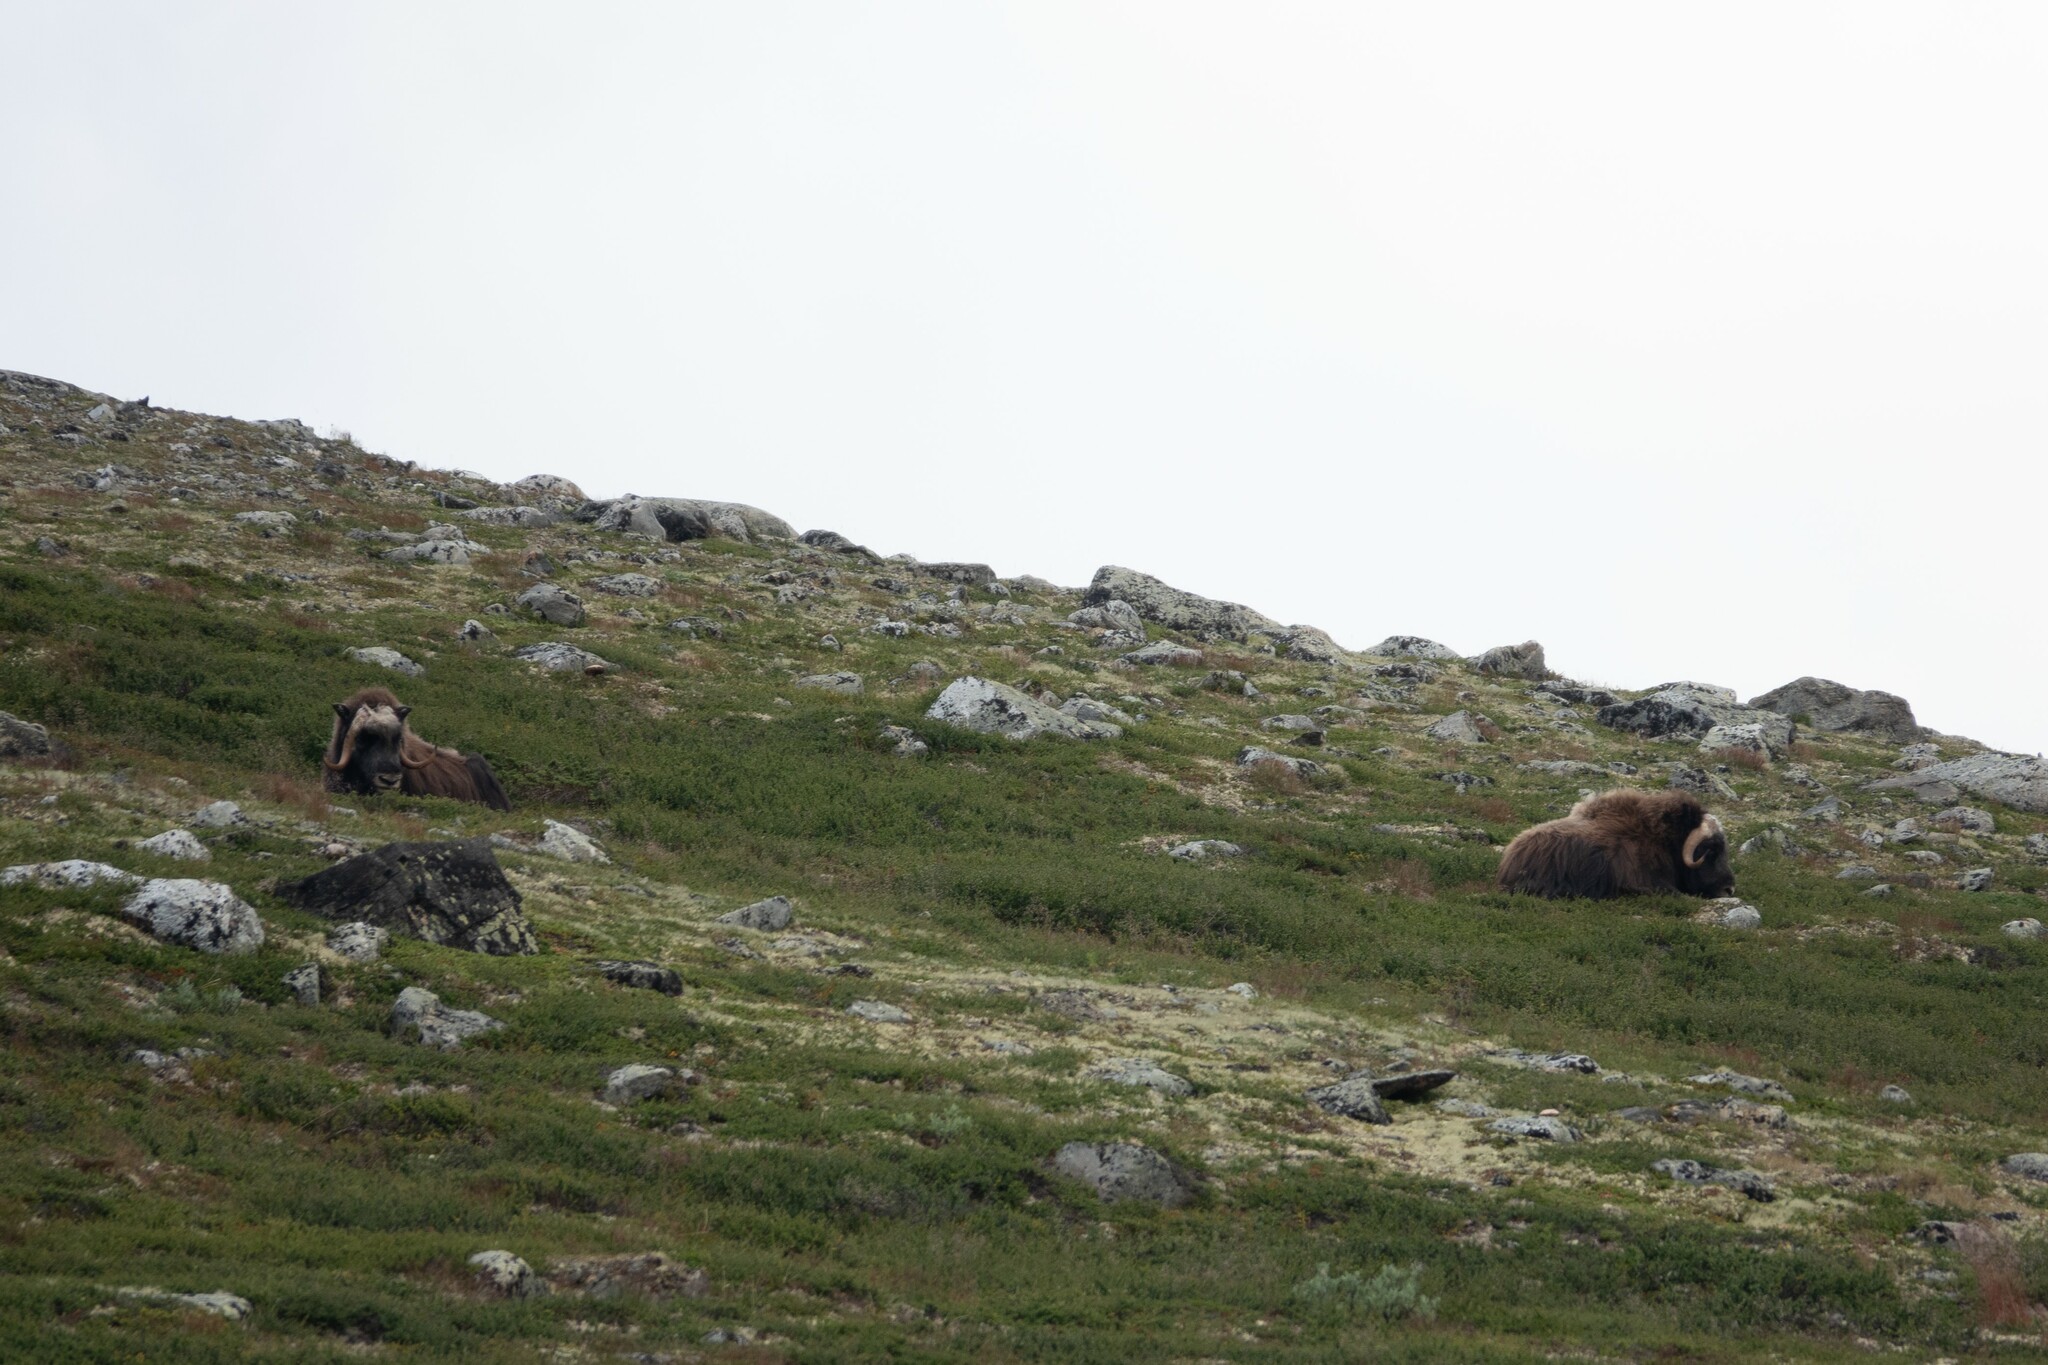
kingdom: Animalia
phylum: Chordata
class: Mammalia
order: Artiodactyla
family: Bovidae
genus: Ovibos
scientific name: Ovibos moschatus
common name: Muskox
